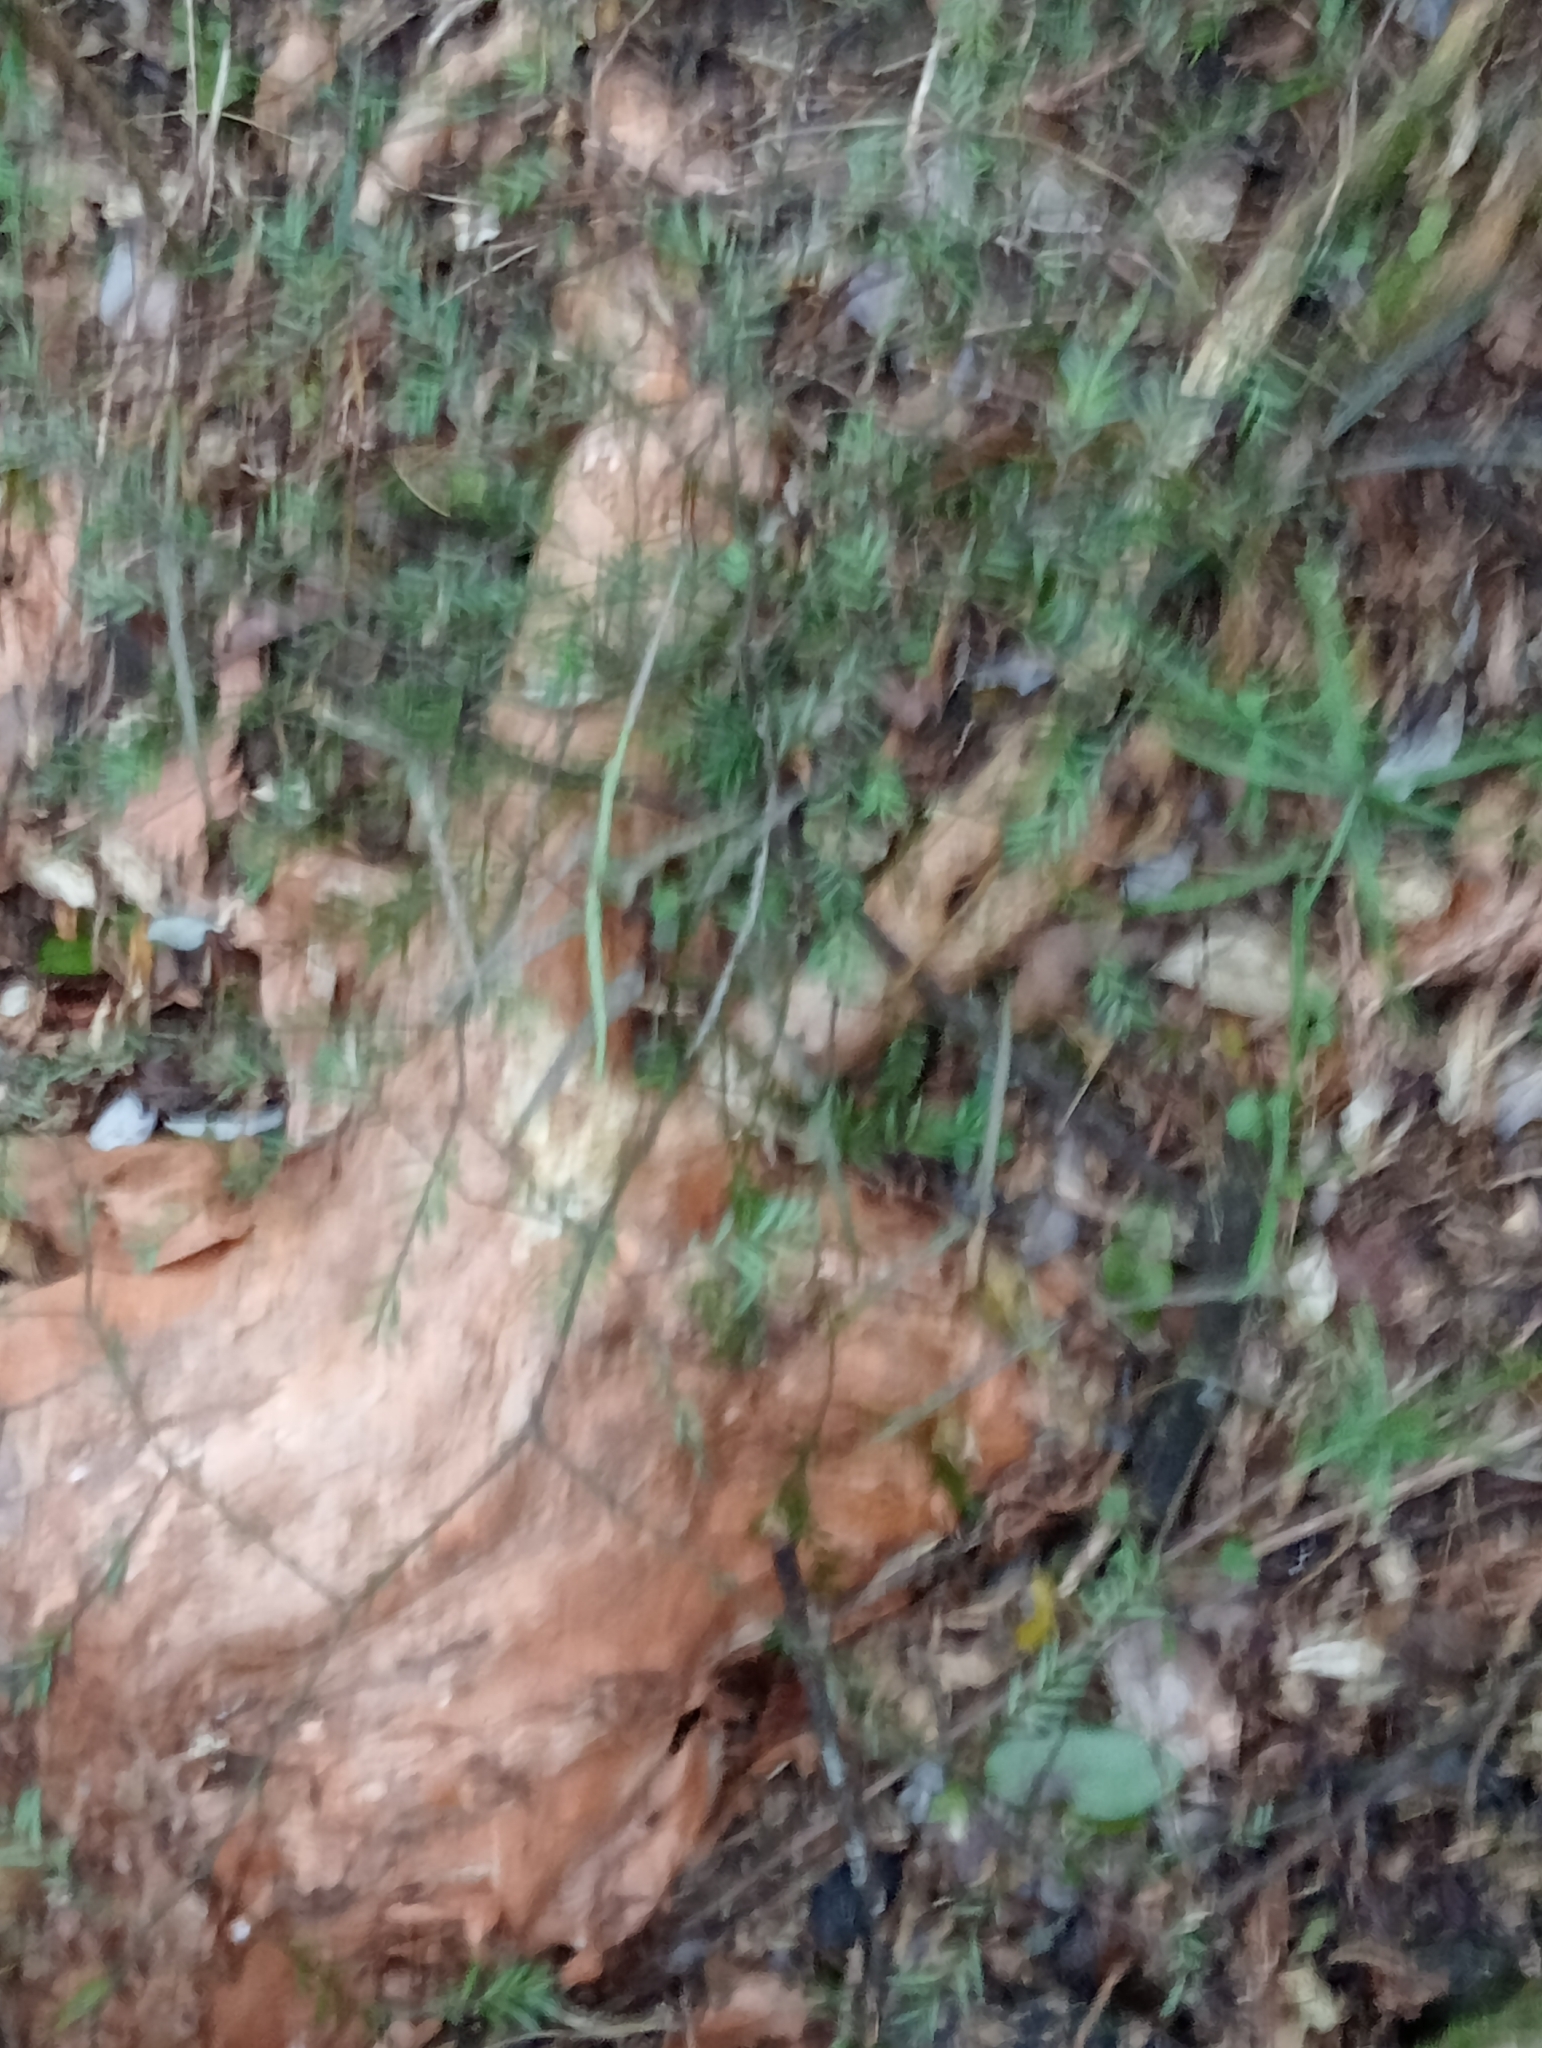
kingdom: Plantae
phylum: Tracheophyta
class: Pinopsida
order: Pinales
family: Podocarpaceae
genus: Prumnopitys
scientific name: Prumnopitys taxifolia
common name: Matai
